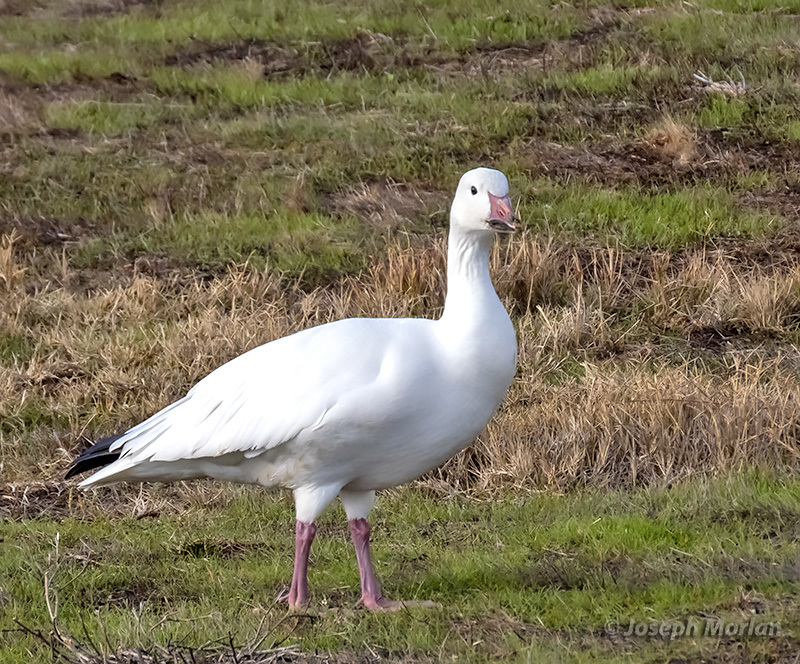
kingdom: Animalia
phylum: Chordata
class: Aves
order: Anseriformes
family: Anatidae
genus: Anser
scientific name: Anser caerulescens
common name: Snow goose
